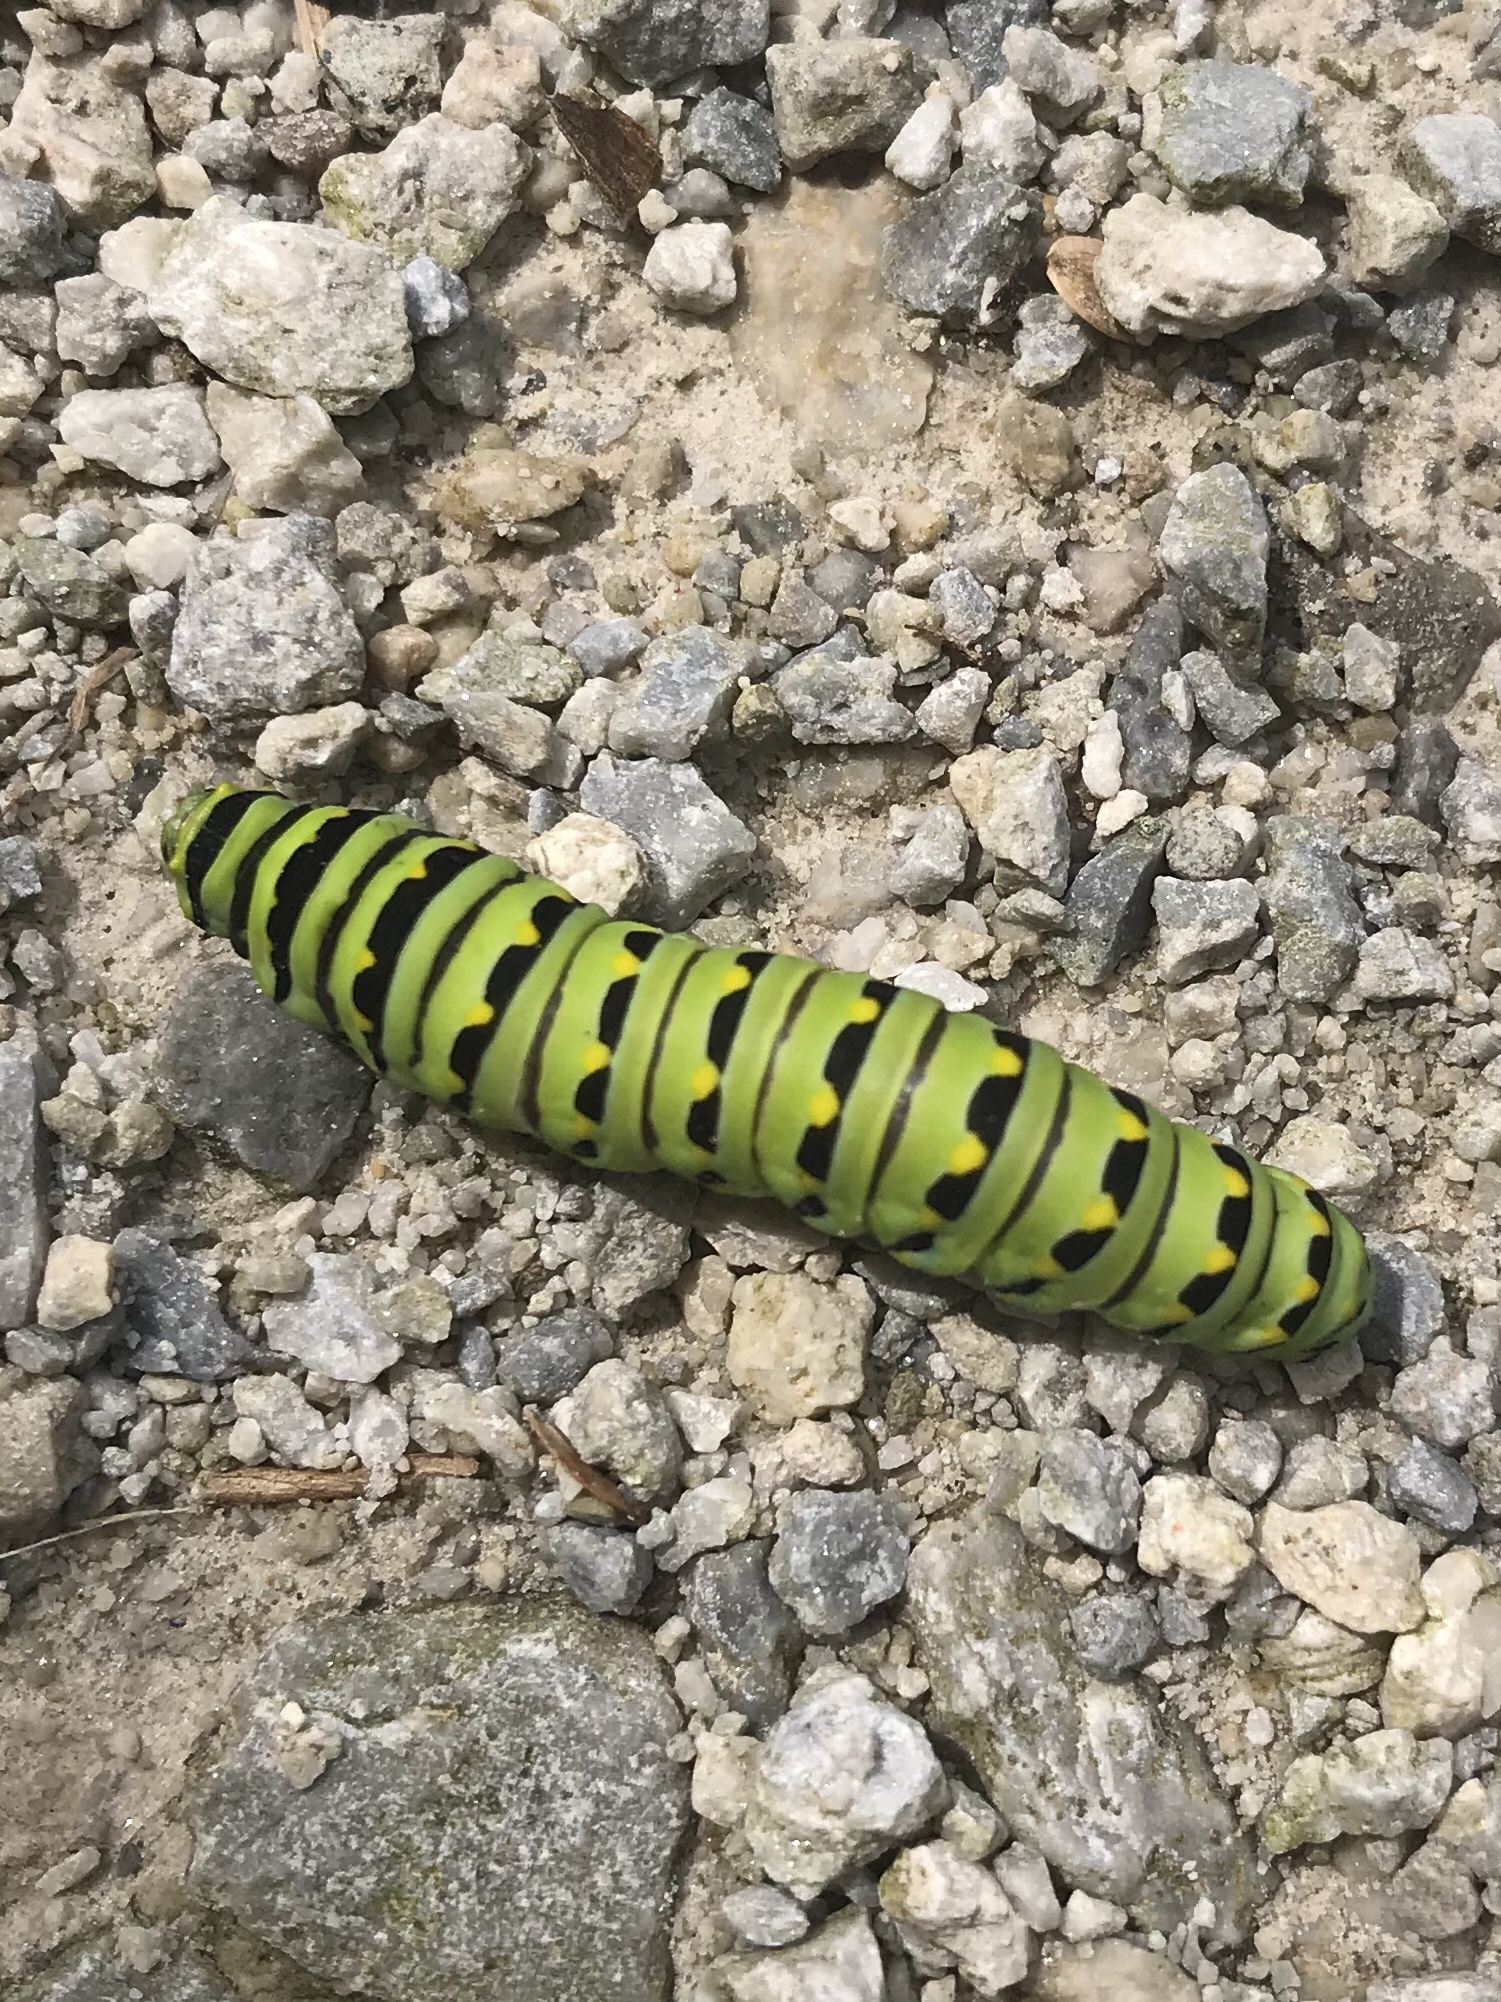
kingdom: Animalia
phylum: Arthropoda
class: Insecta
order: Lepidoptera
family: Papilionidae
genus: Papilio
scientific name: Papilio polyxenes
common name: Black swallowtail
